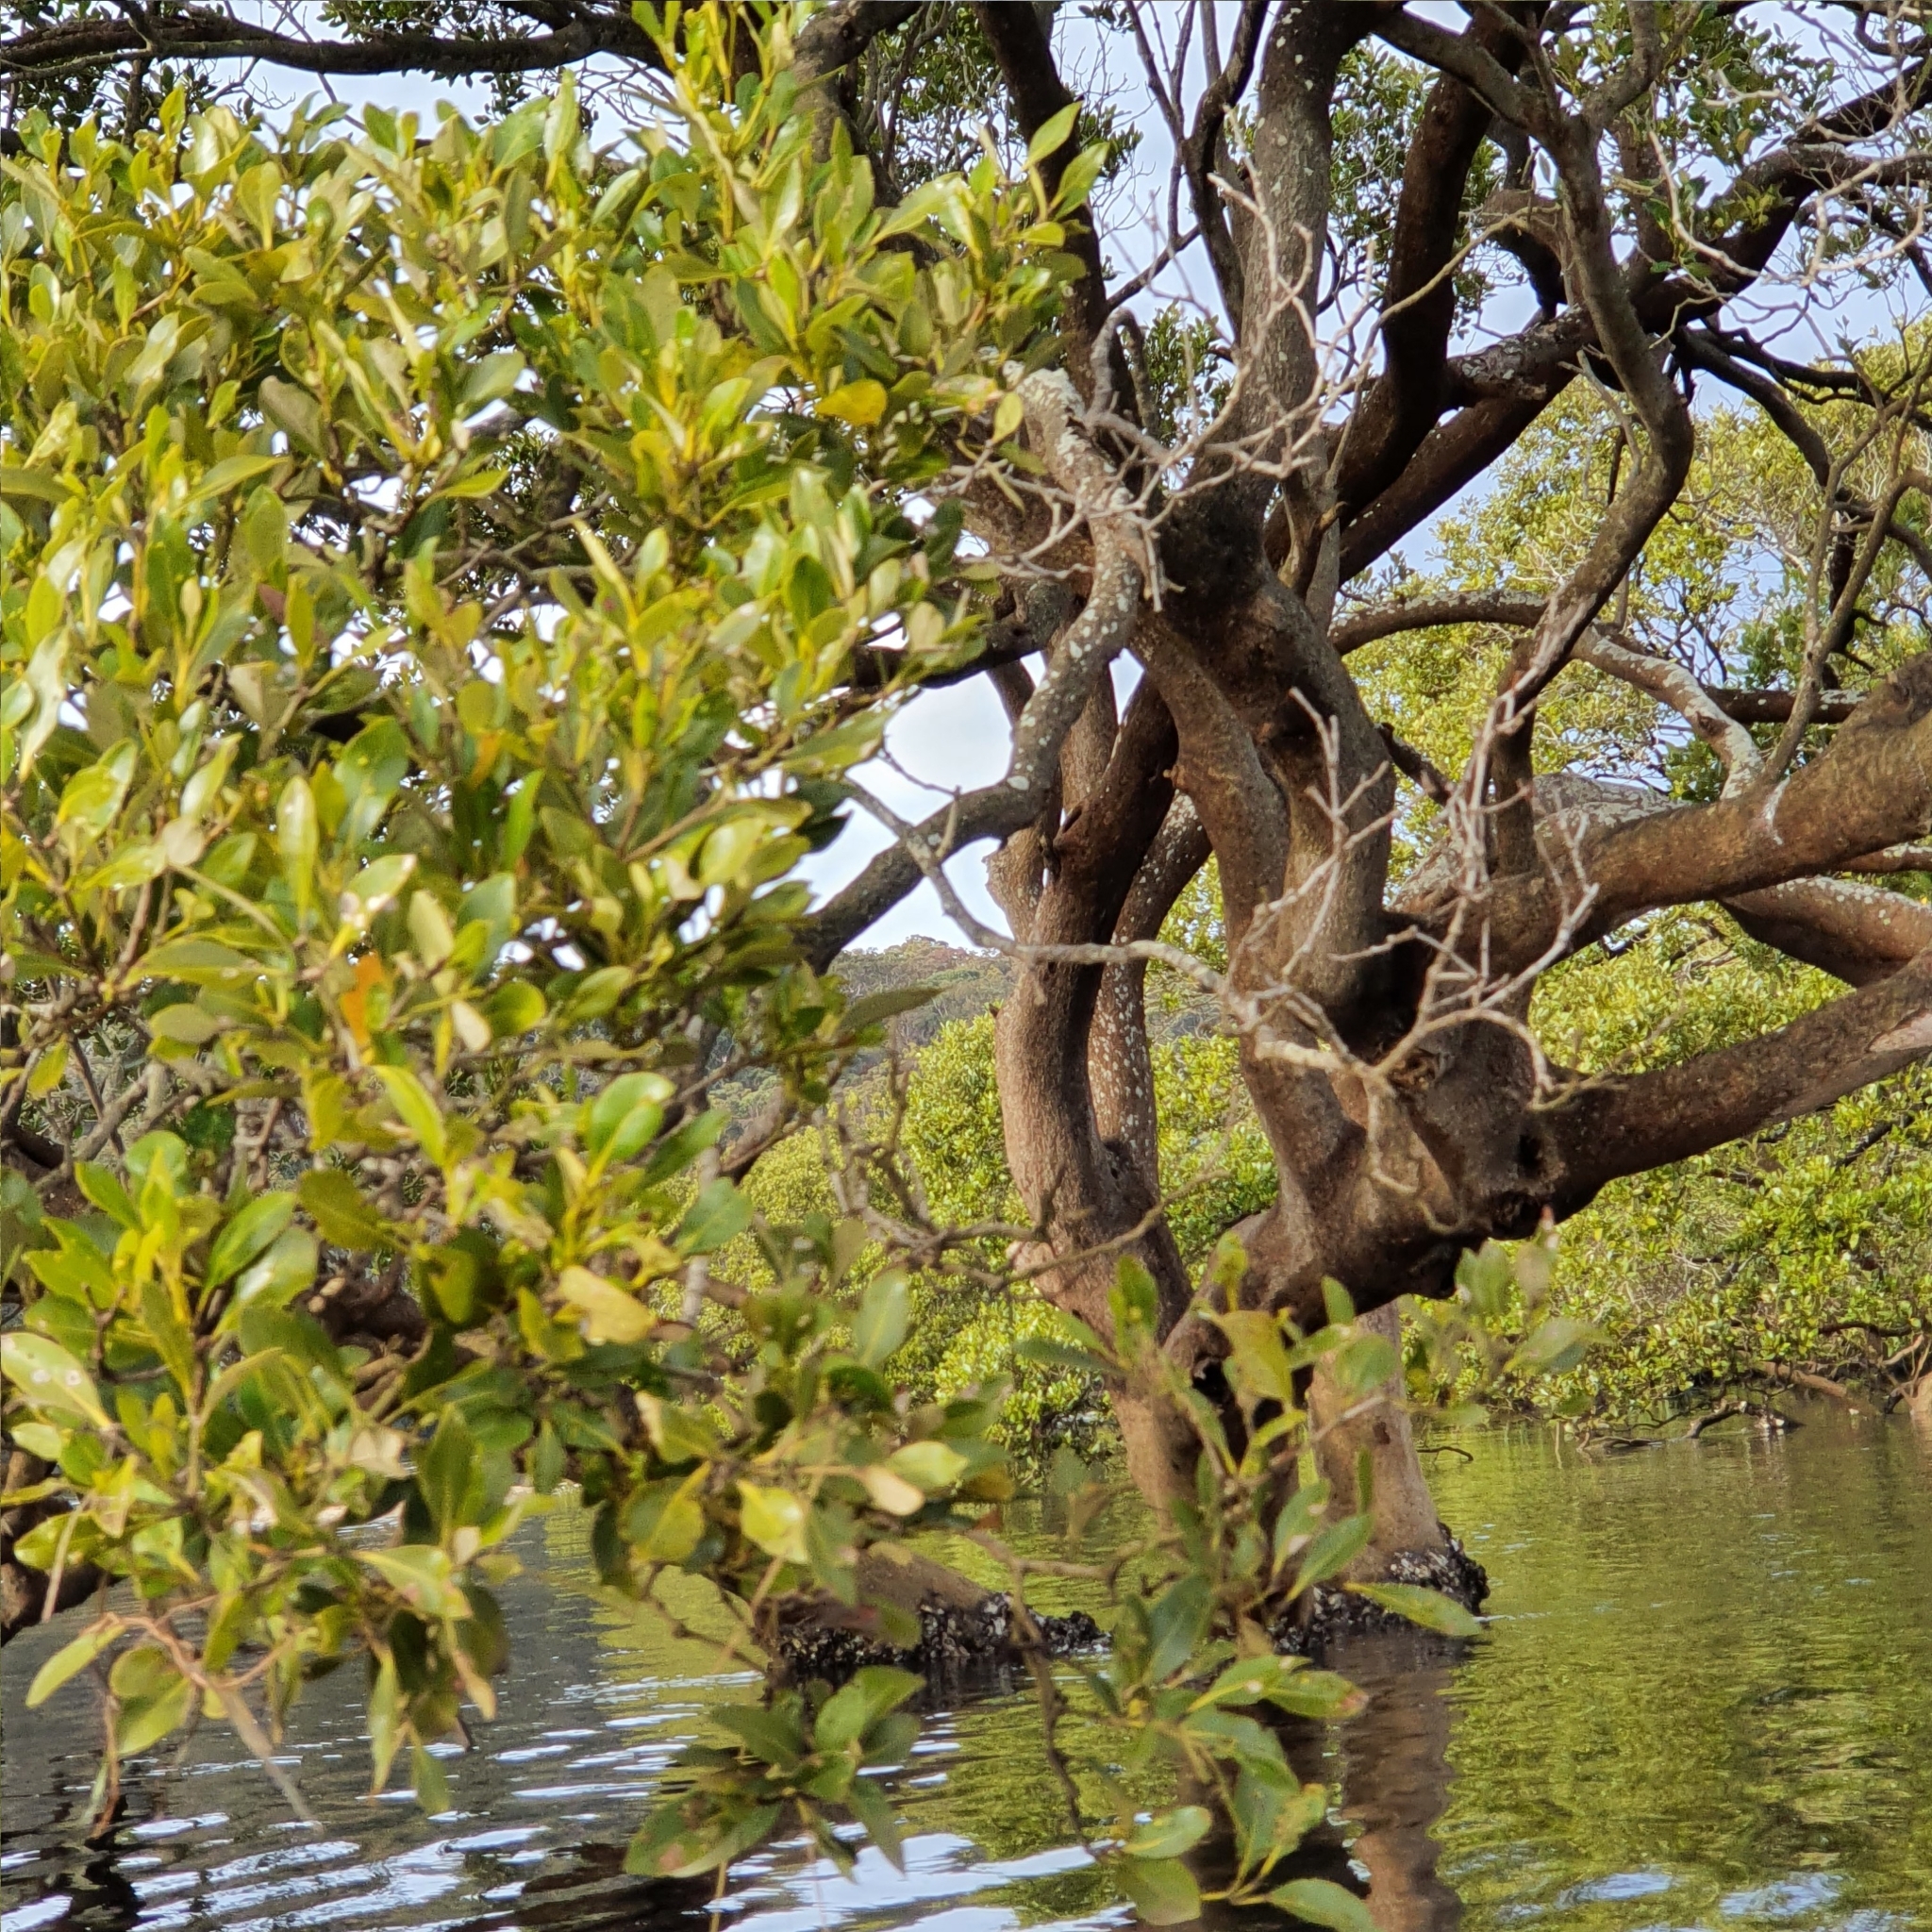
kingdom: Plantae
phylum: Tracheophyta
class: Magnoliopsida
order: Lamiales
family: Acanthaceae
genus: Avicennia
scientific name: Avicennia marina
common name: Gray mangrove
